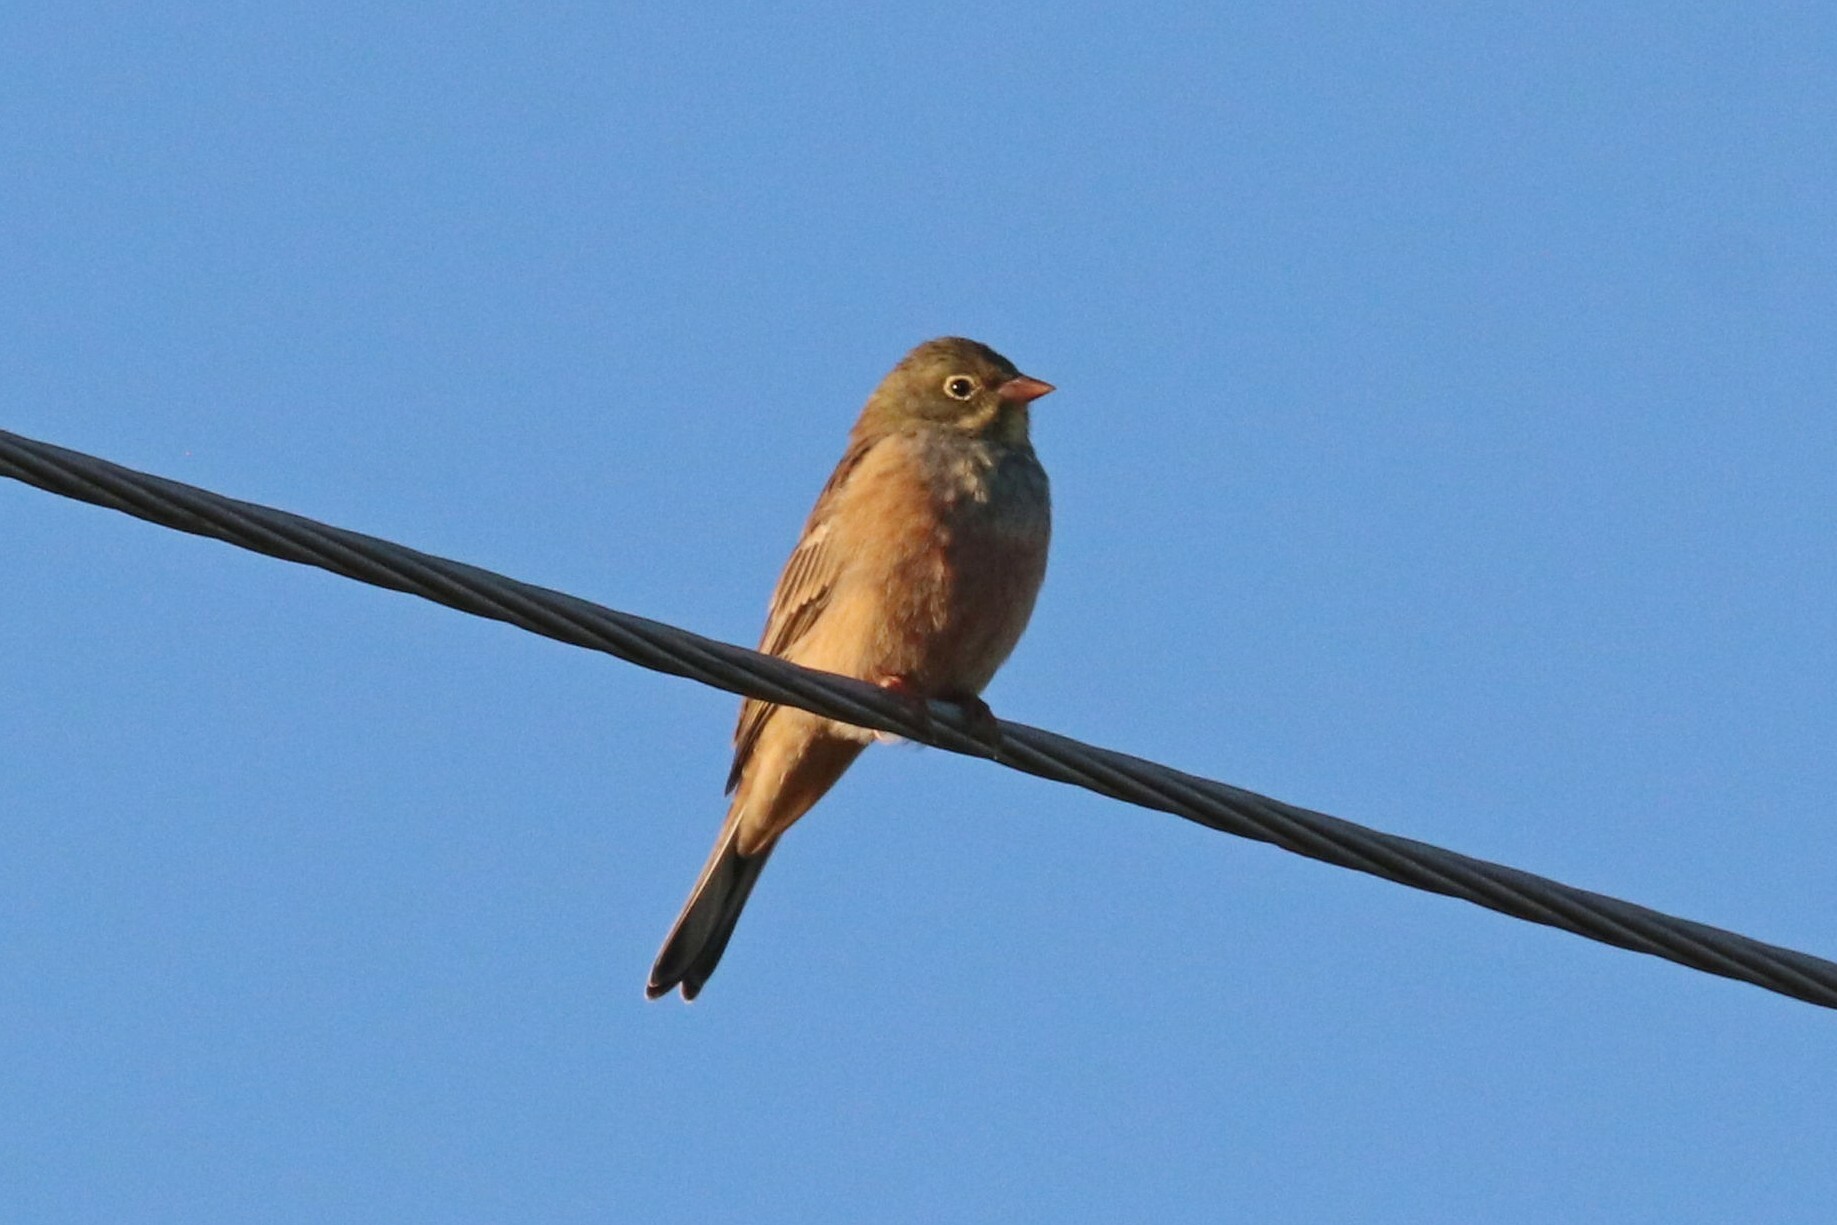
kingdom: Animalia
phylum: Chordata
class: Aves
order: Passeriformes
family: Emberizidae
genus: Emberiza
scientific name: Emberiza hortulana
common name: Ortolan bunting
